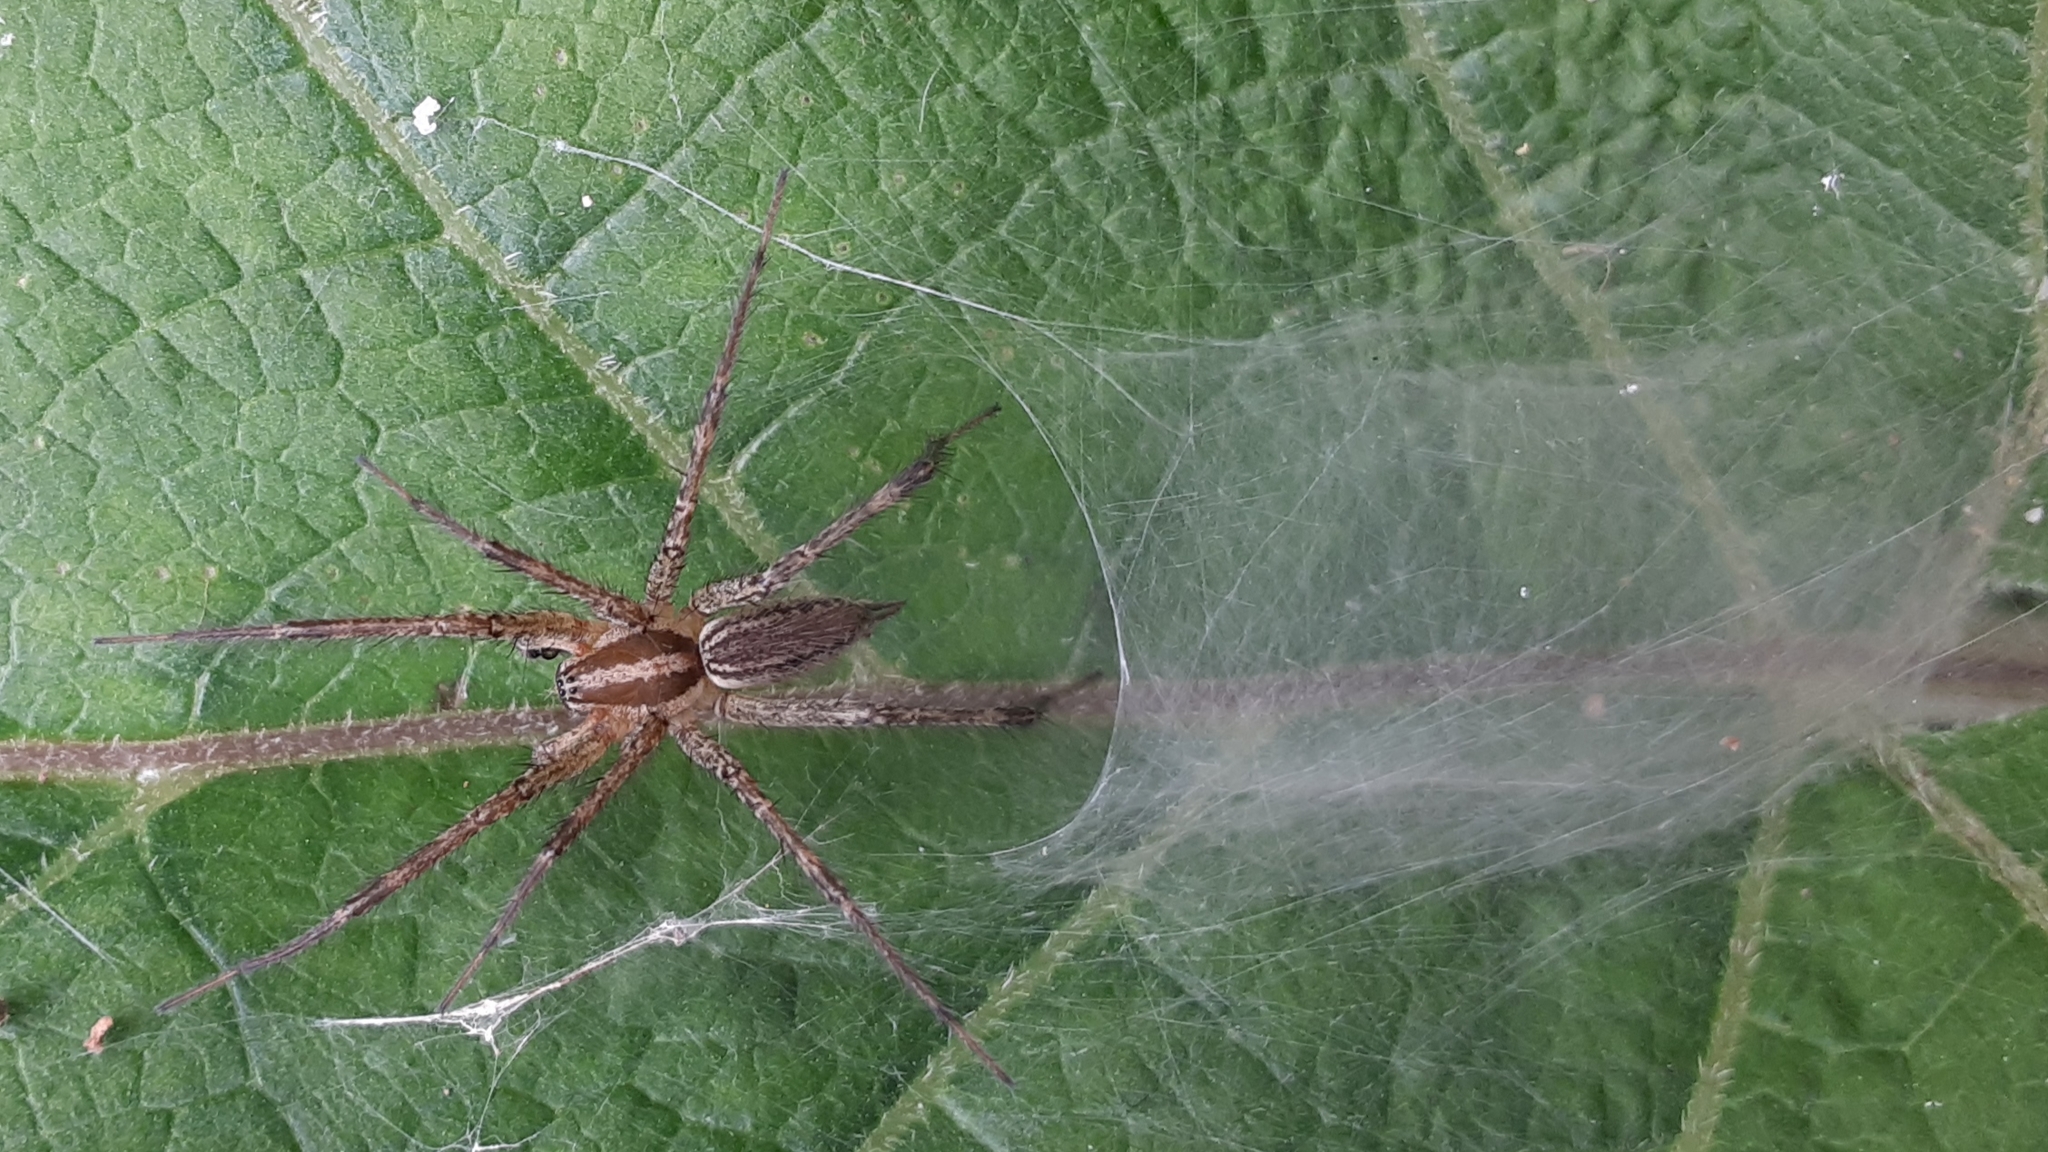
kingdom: Animalia
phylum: Arthropoda
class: Arachnida
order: Araneae
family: Agelenidae
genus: Agelenopsis
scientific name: Agelenopsis
